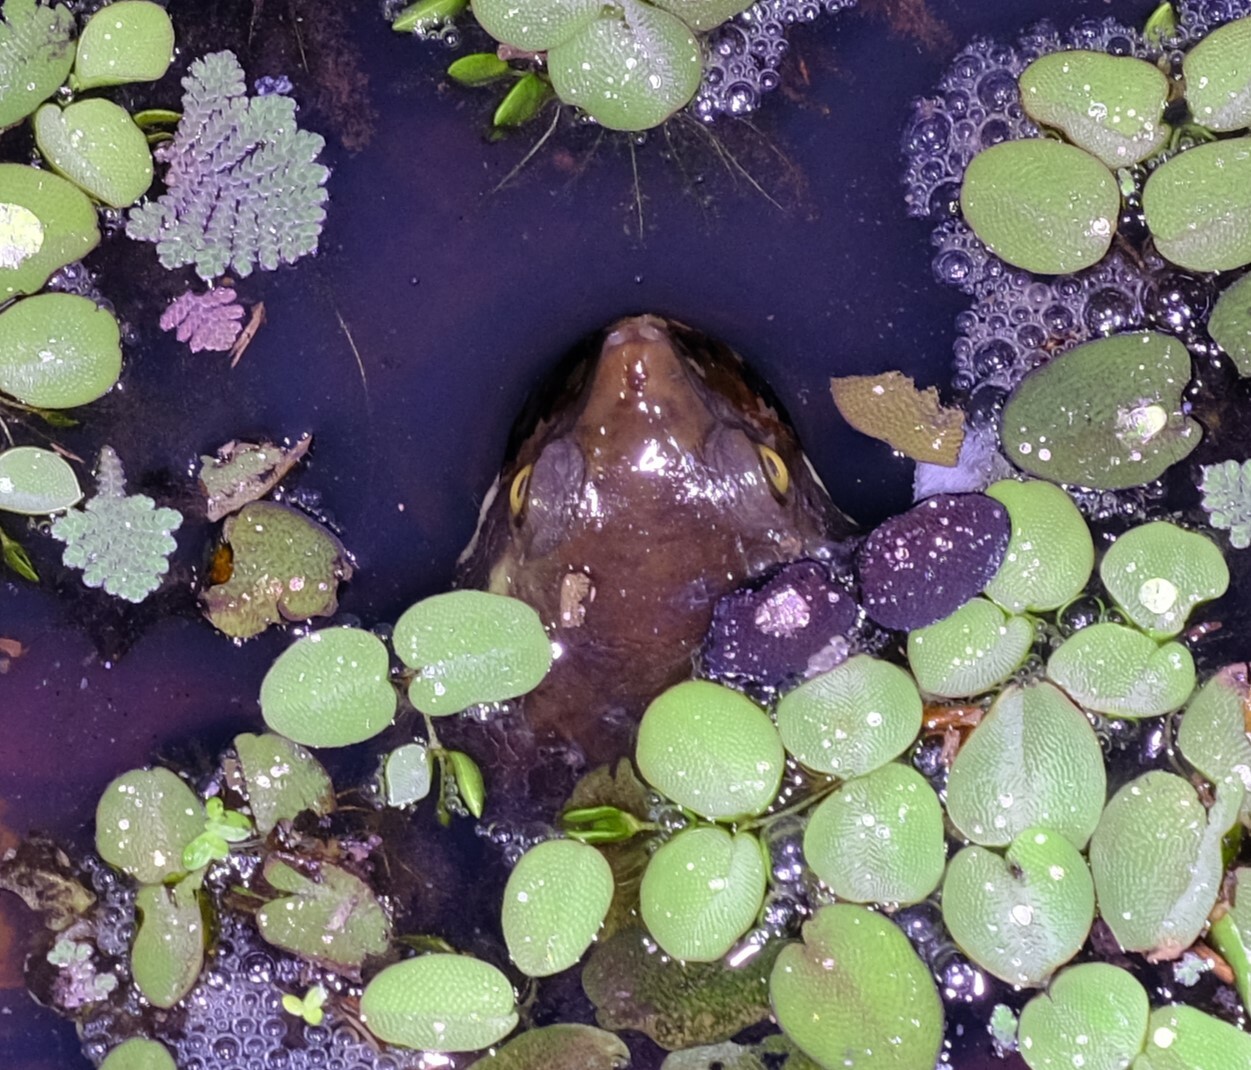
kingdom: Animalia
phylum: Chordata
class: Testudines
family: Chelidae
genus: Emydura
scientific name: Emydura macquarii
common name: Murray river turtle
